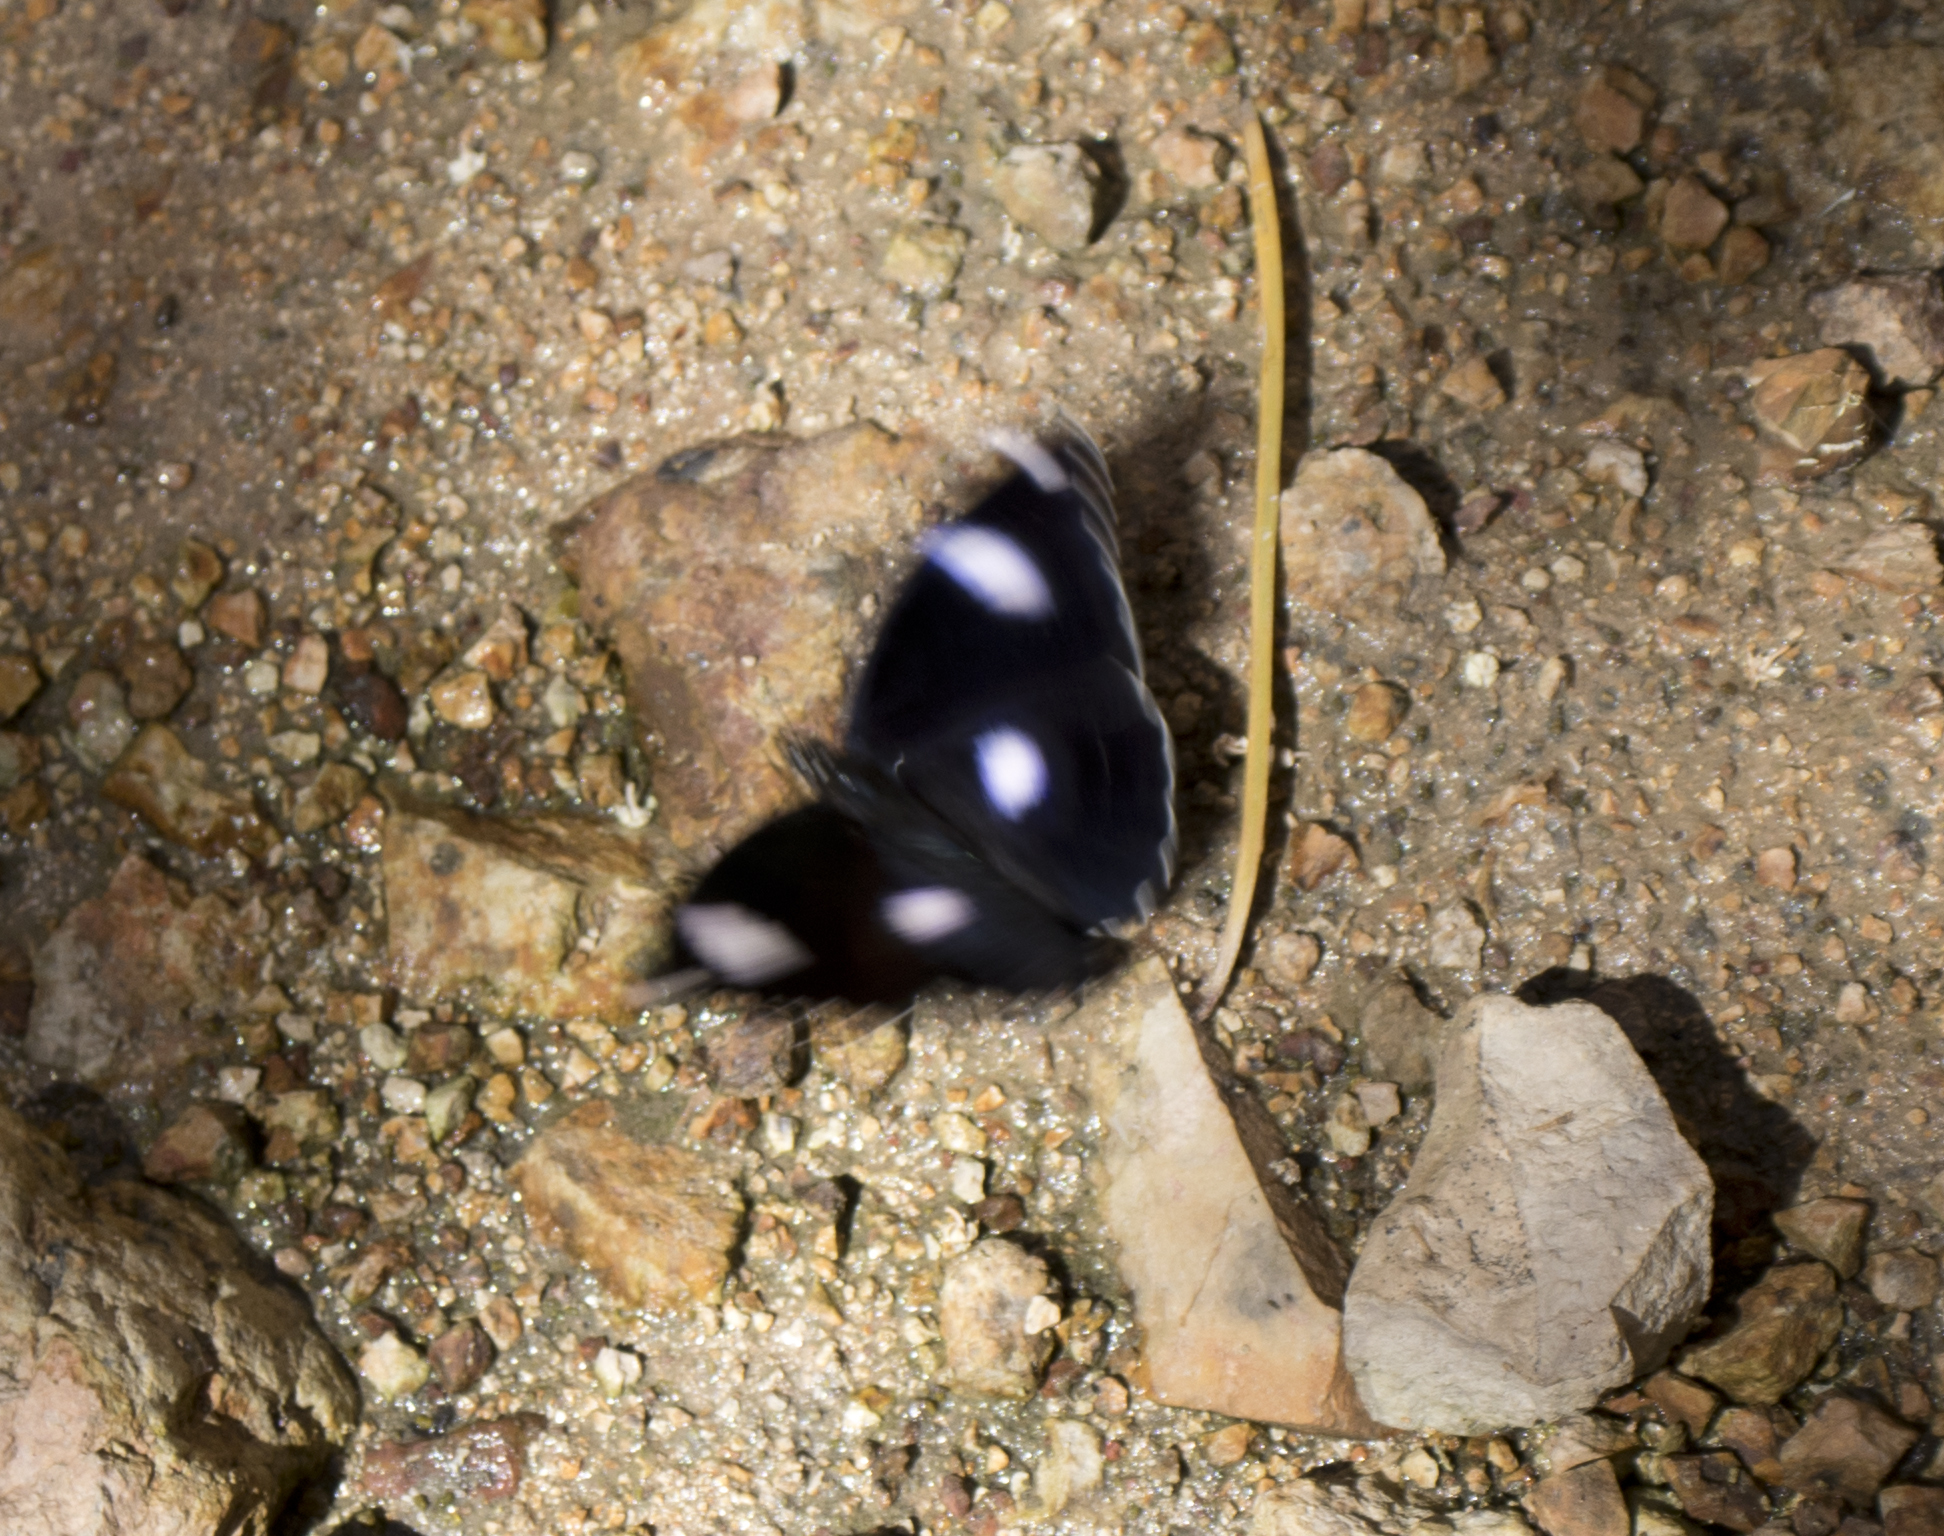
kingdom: Animalia
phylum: Arthropoda
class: Insecta
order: Lepidoptera
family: Nymphalidae
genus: Hypolimnas
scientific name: Hypolimnas bolina
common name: Great eggfly
